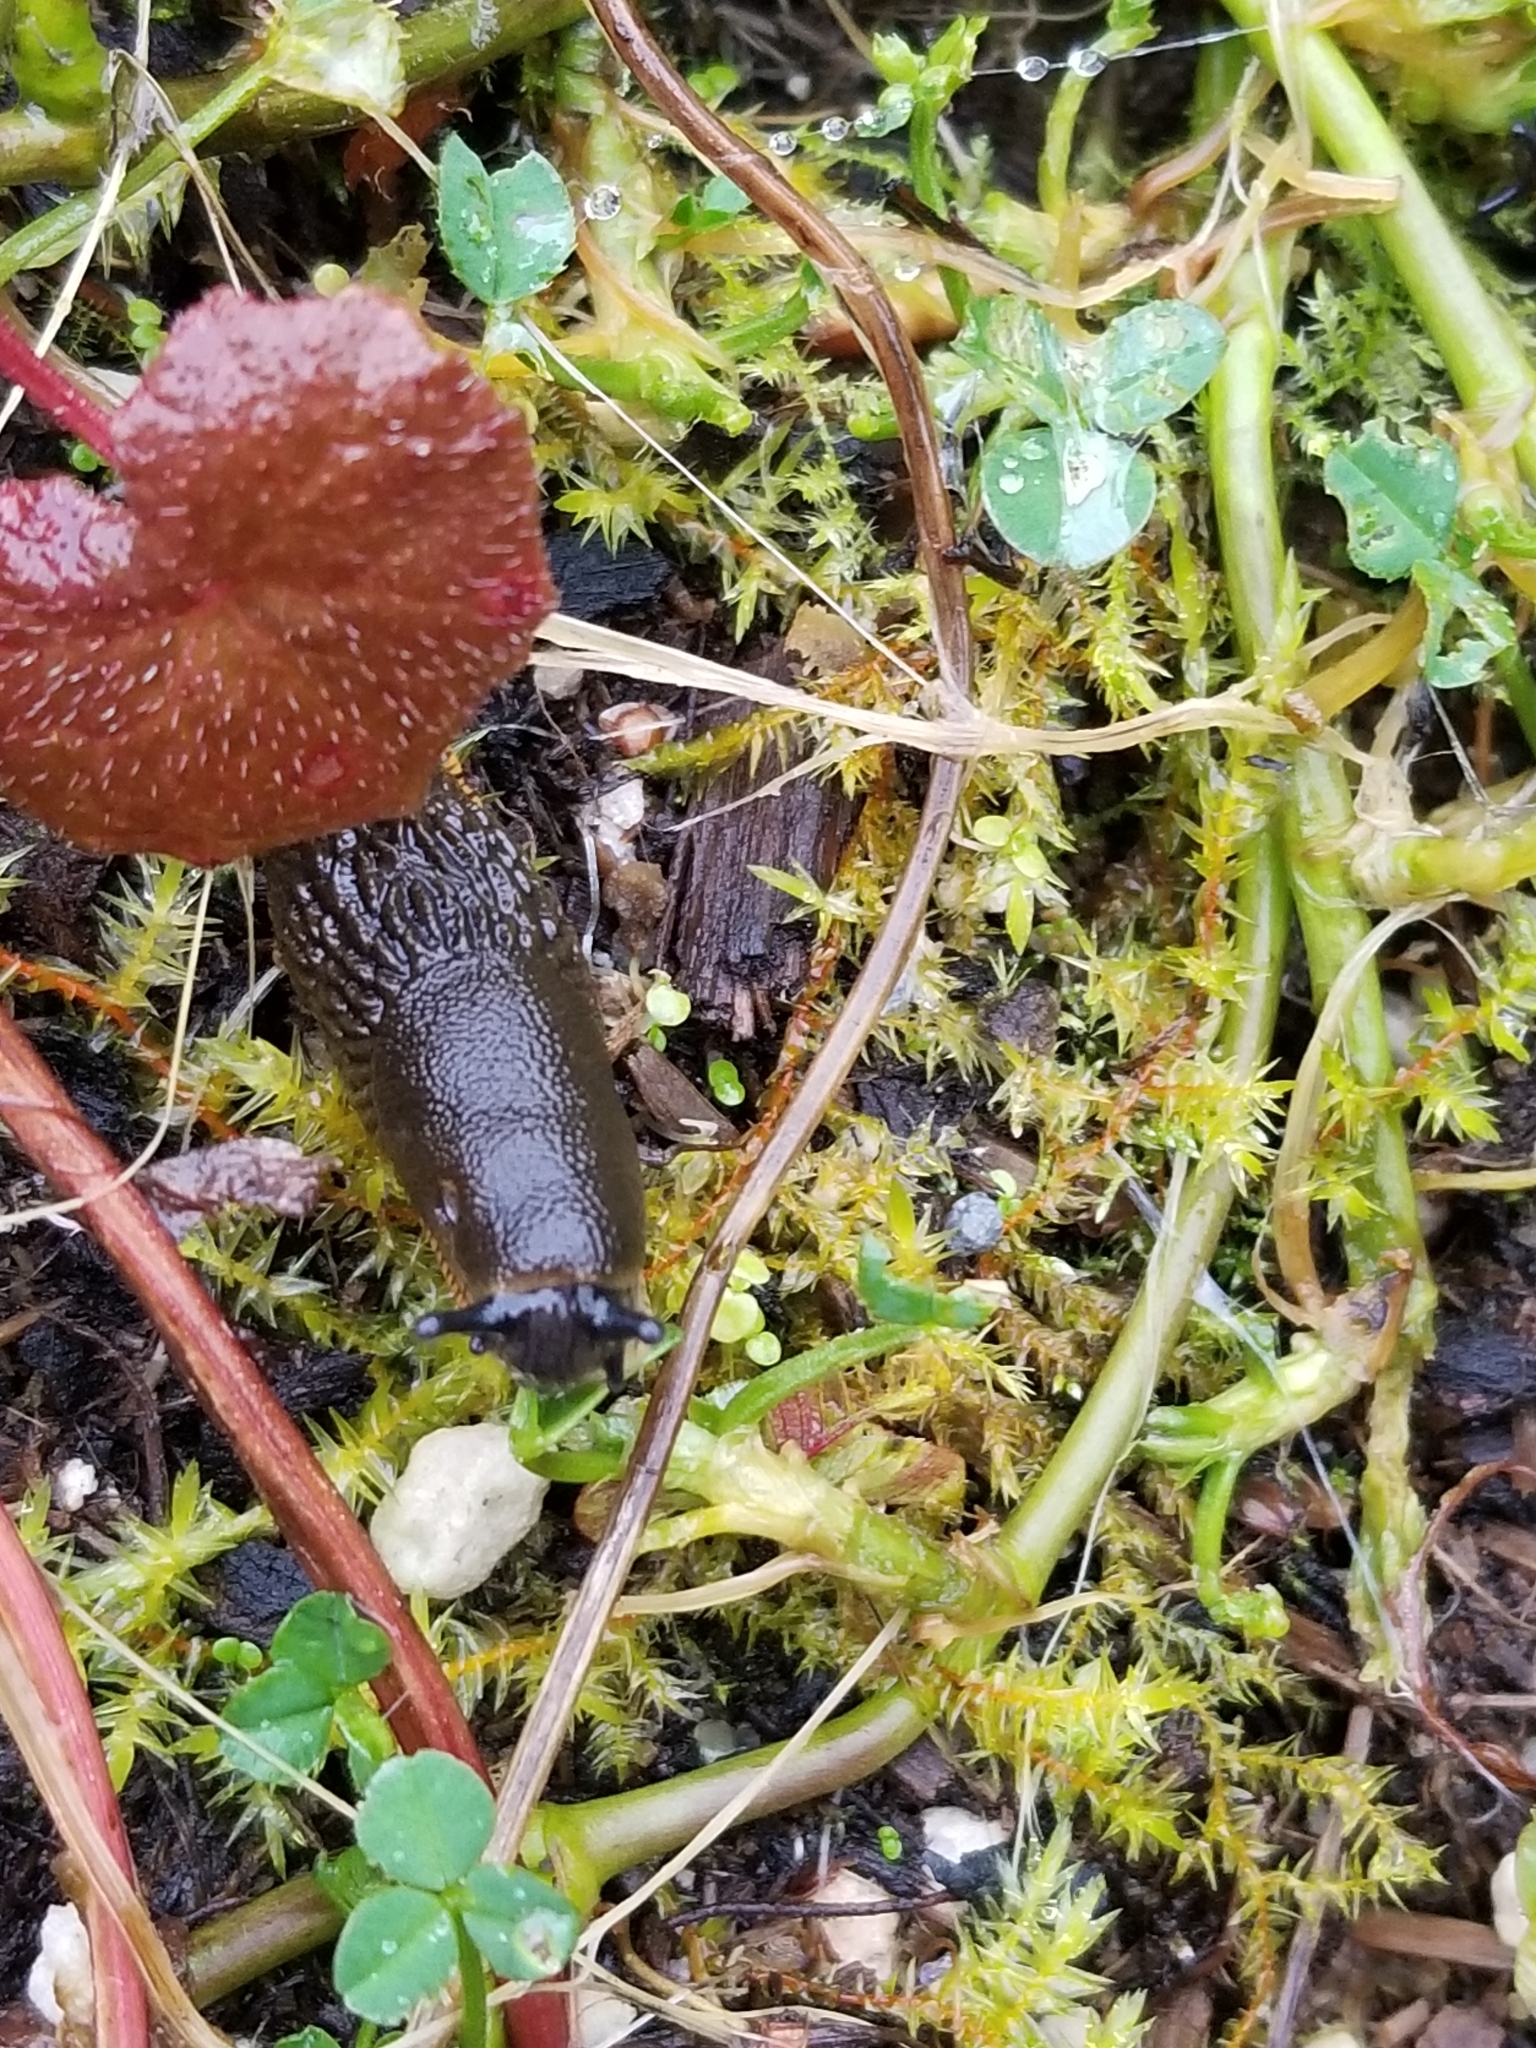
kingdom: Animalia
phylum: Mollusca
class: Gastropoda
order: Stylommatophora
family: Arionidae
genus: Arion
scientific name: Arion
